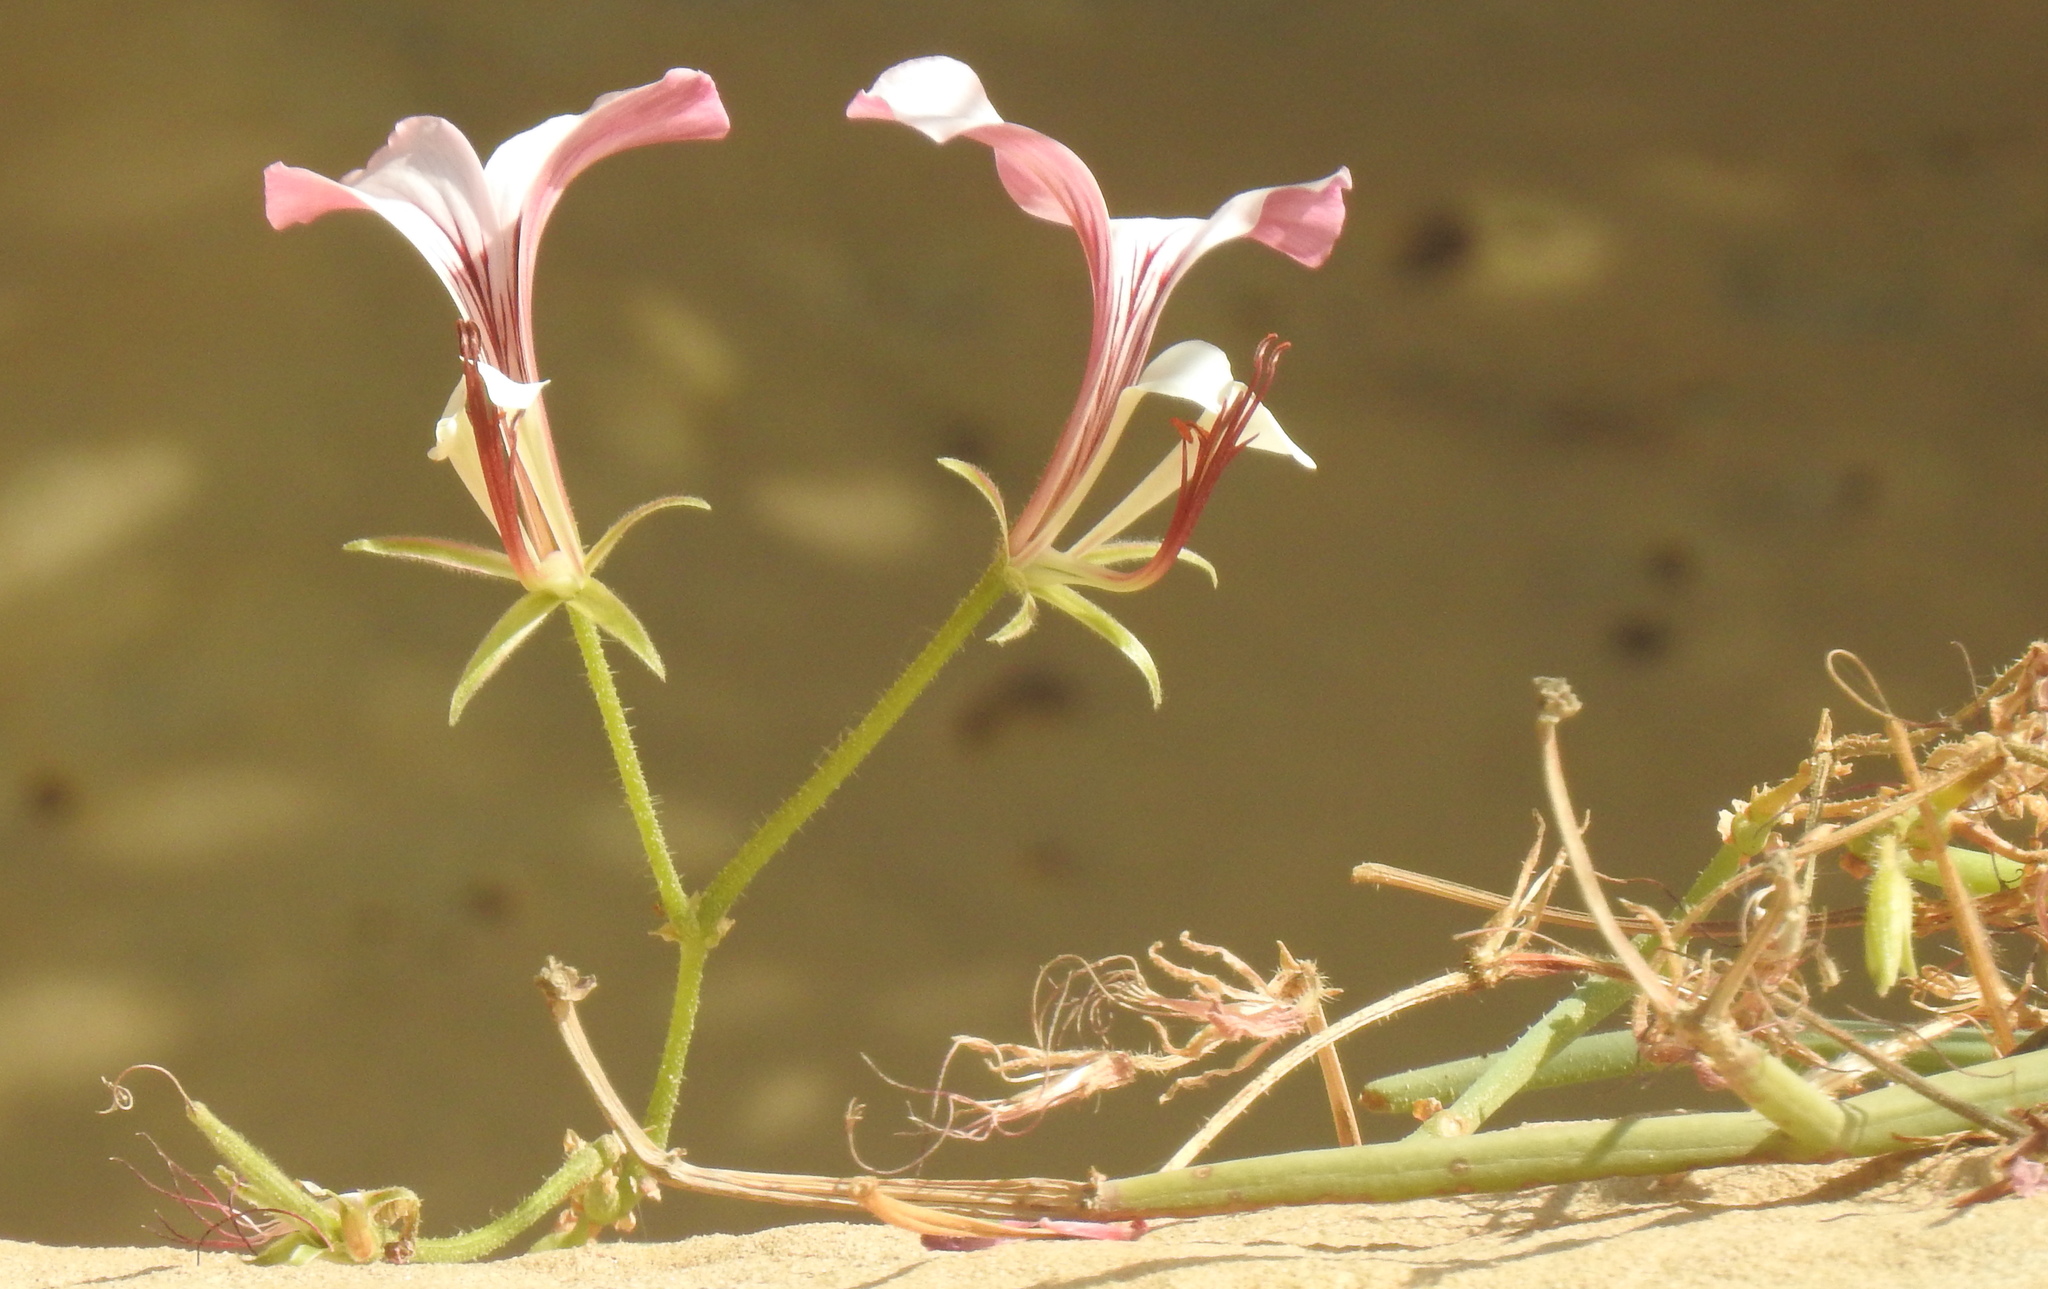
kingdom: Plantae
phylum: Tracheophyta
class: Magnoliopsida
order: Geraniales
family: Geraniaceae
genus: Pelargonium
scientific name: Pelargonium tetragonum
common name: Square-stack crane's-bill
